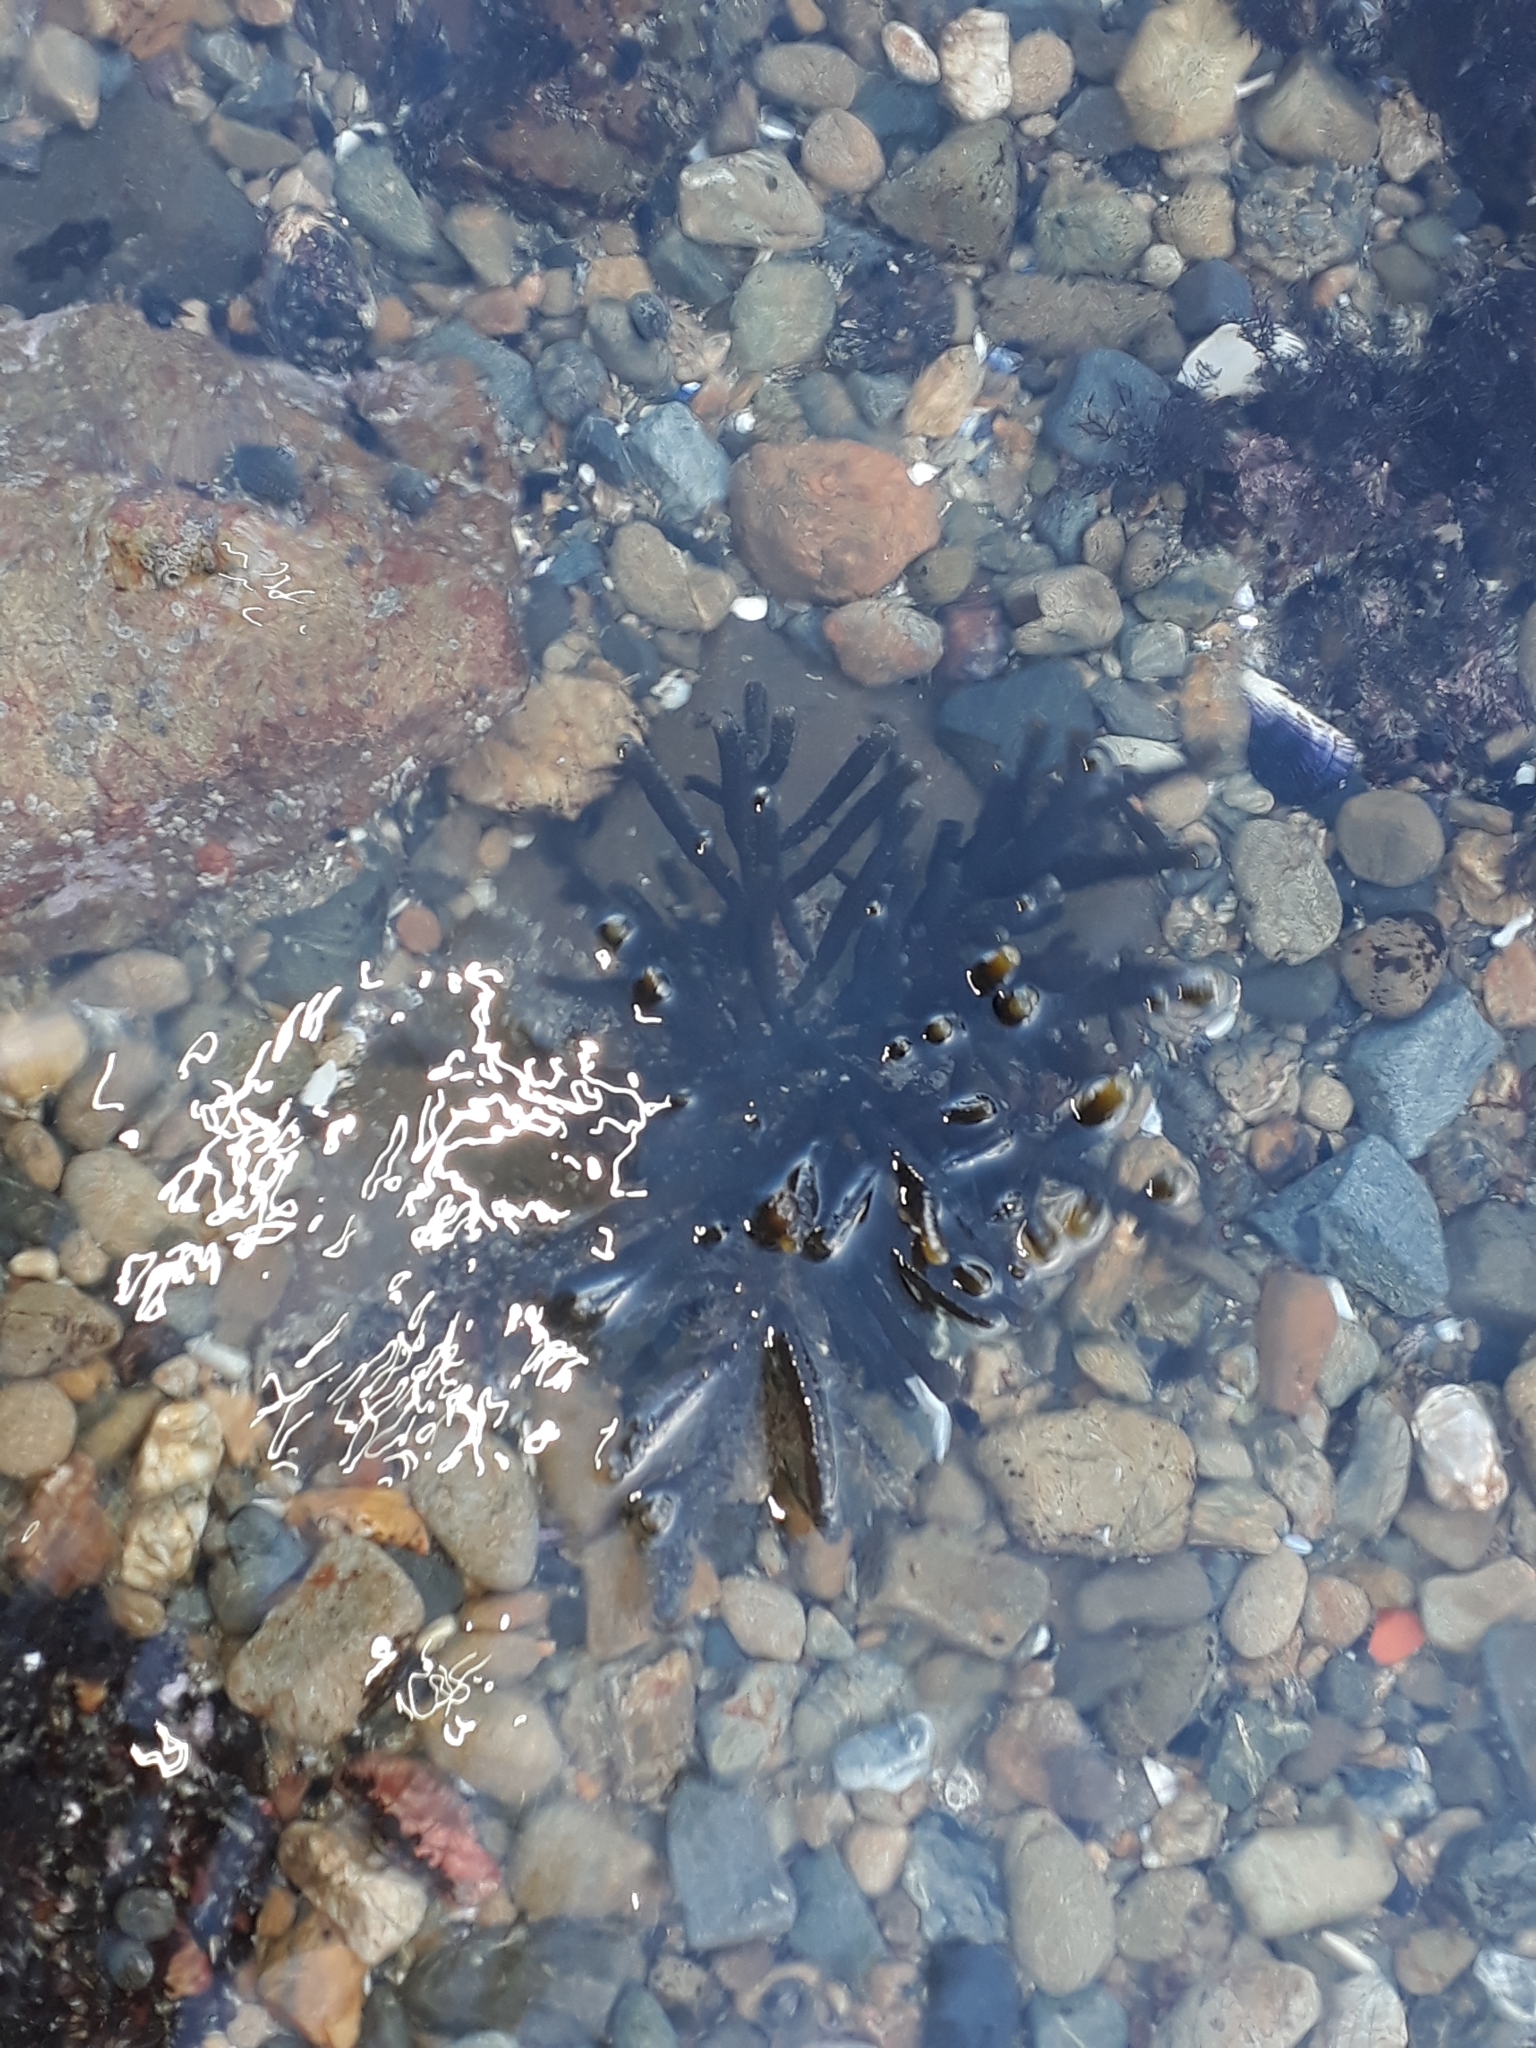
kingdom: Chromista
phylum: Ochrophyta
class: Phaeophyceae
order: Scytothamnales
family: Splachnidiaceae
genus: Splachnidium
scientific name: Splachnidium rugosum
